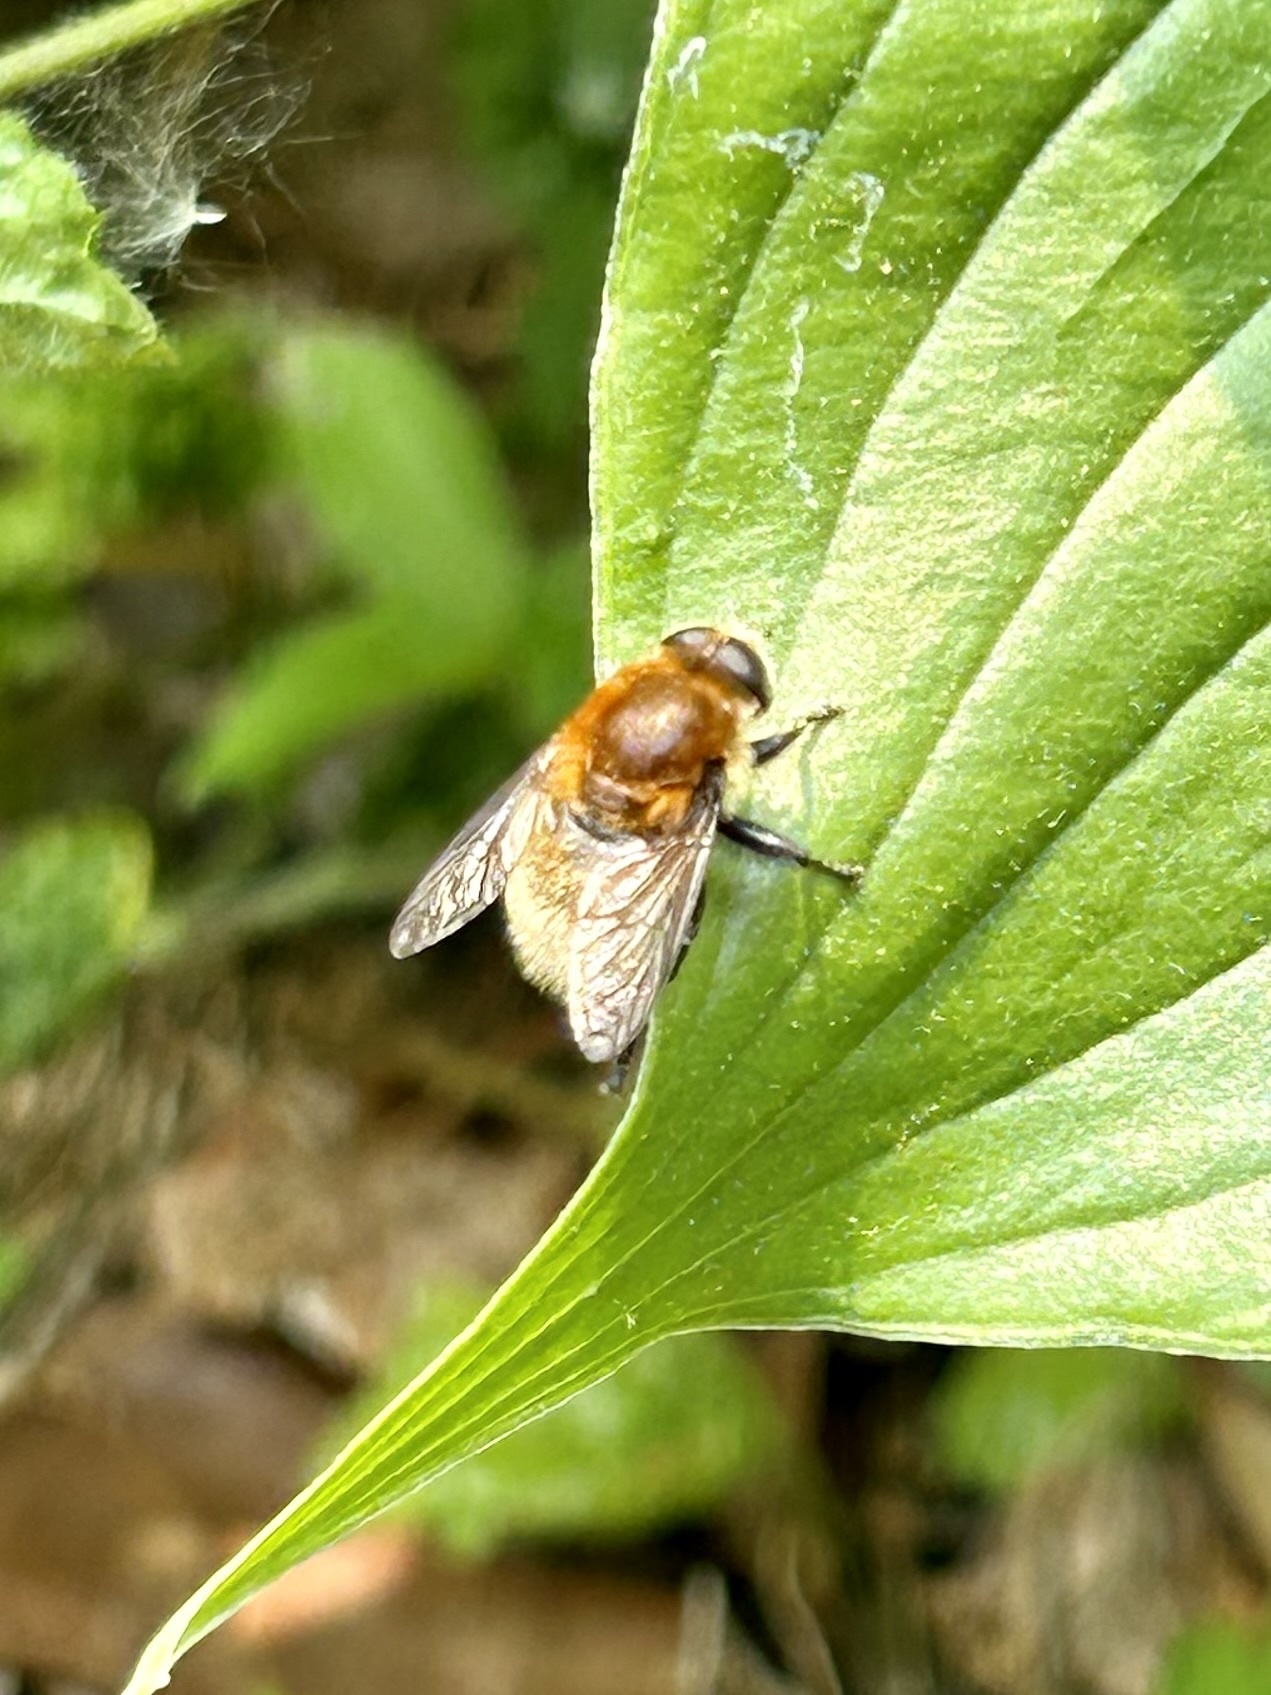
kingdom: Animalia
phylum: Arthropoda
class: Insecta
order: Diptera
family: Syrphidae
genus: Merodon
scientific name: Merodon equestris
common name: Greater bulb-fly
